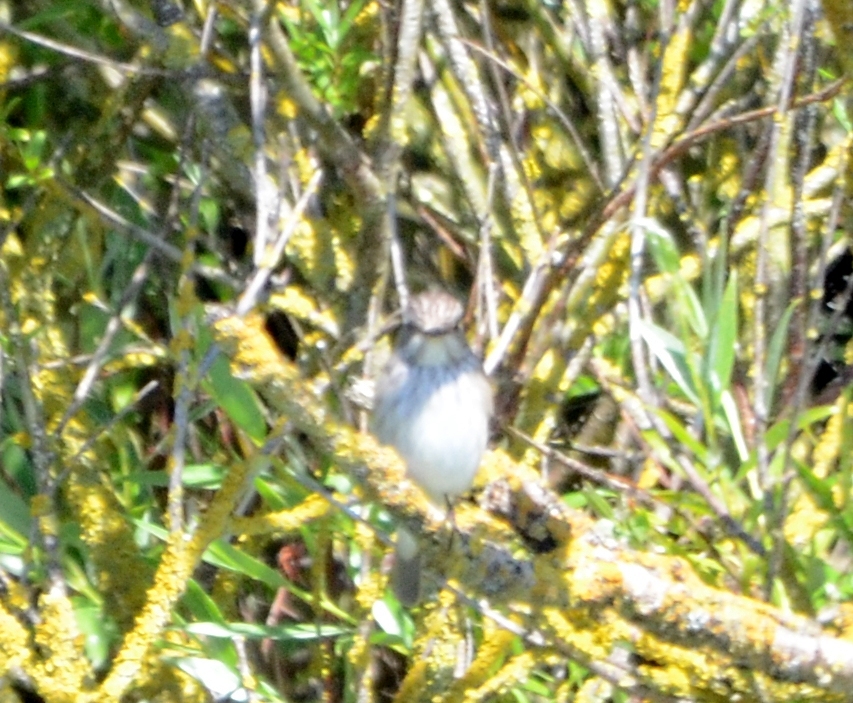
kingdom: Animalia
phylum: Chordata
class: Aves
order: Passeriformes
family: Muscicapidae
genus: Muscicapa
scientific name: Muscicapa striata
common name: Spotted flycatcher
